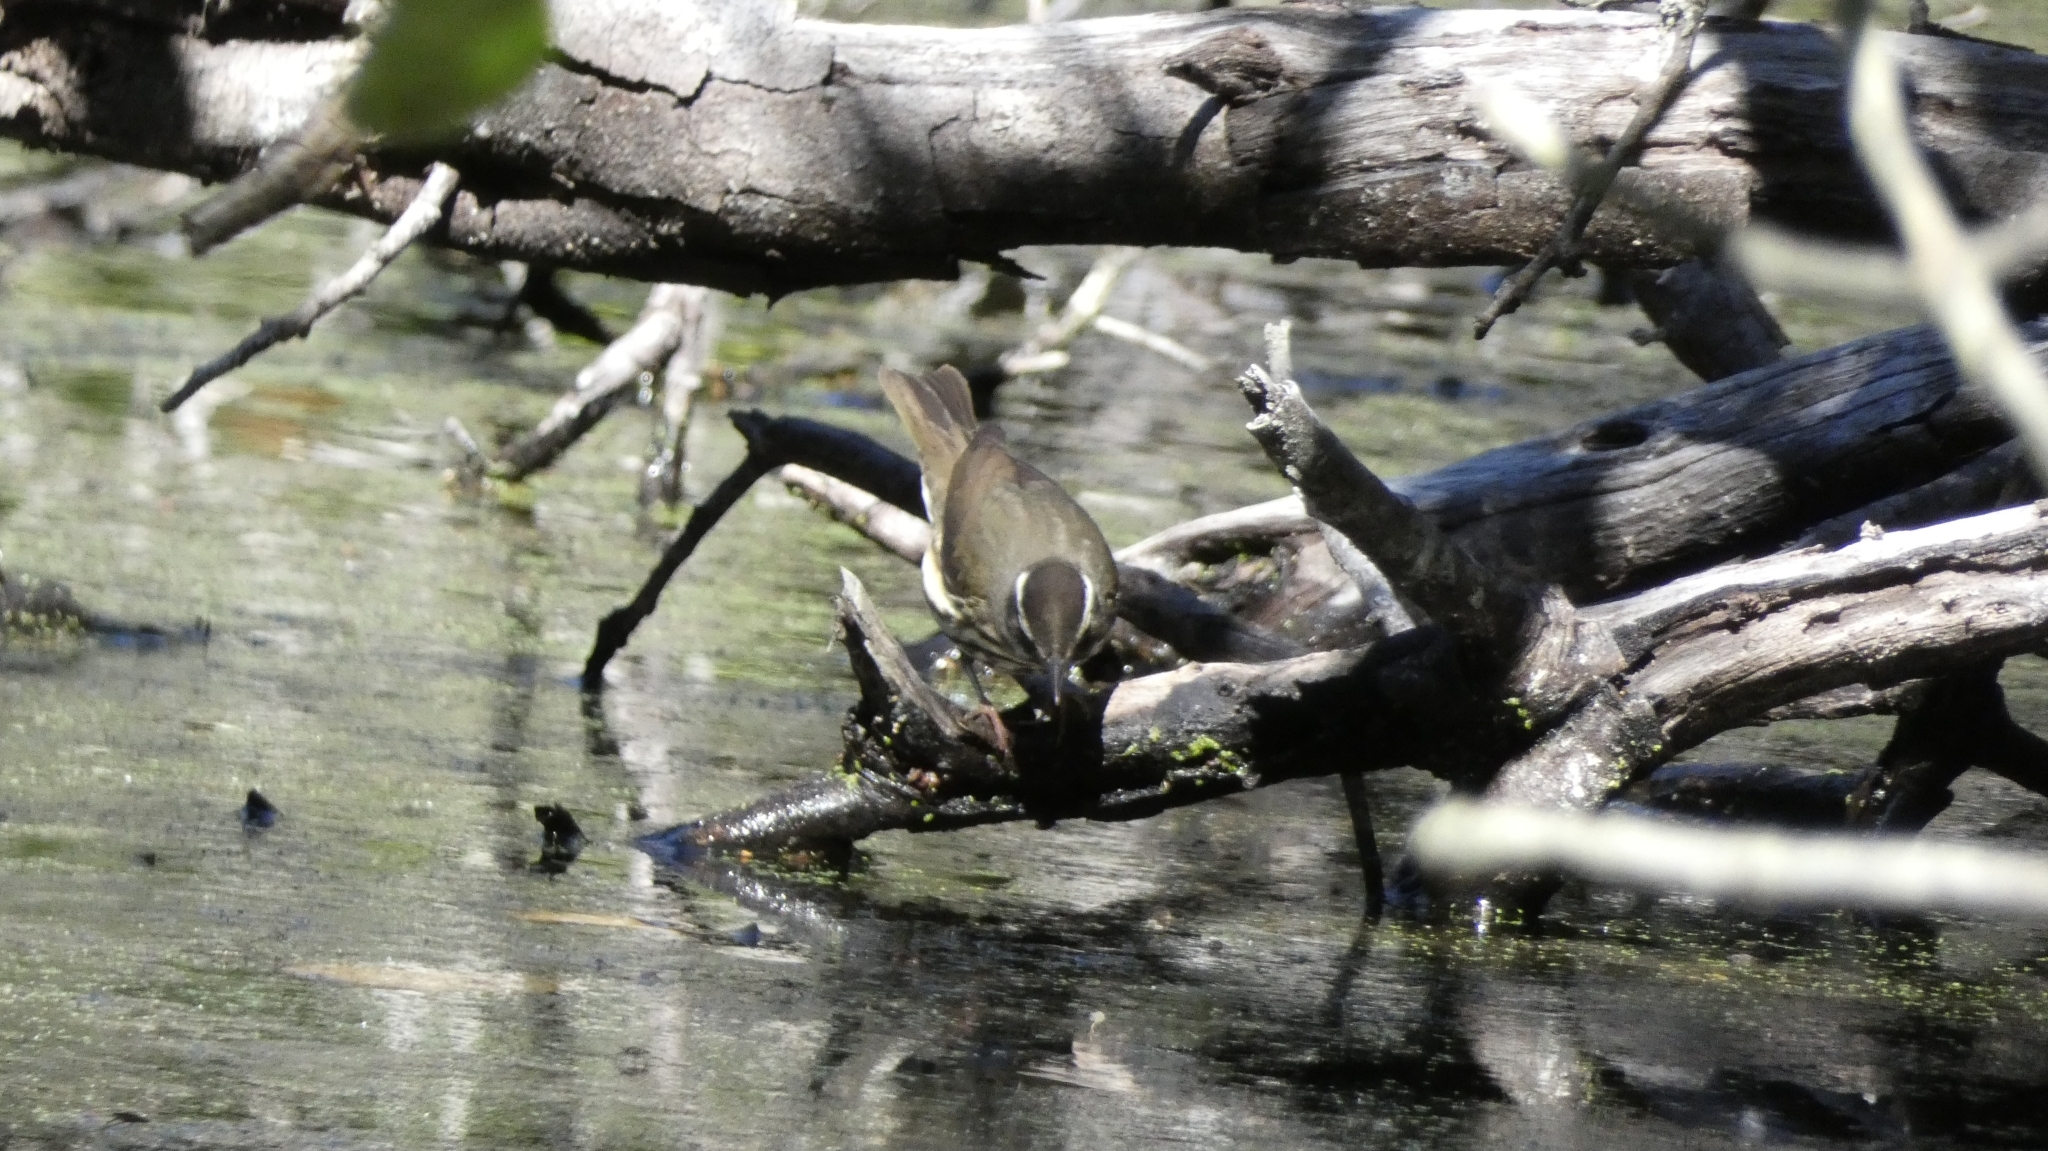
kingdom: Animalia
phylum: Chordata
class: Aves
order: Passeriformes
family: Parulidae
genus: Parkesia
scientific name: Parkesia motacilla
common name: Louisiana waterthrush
